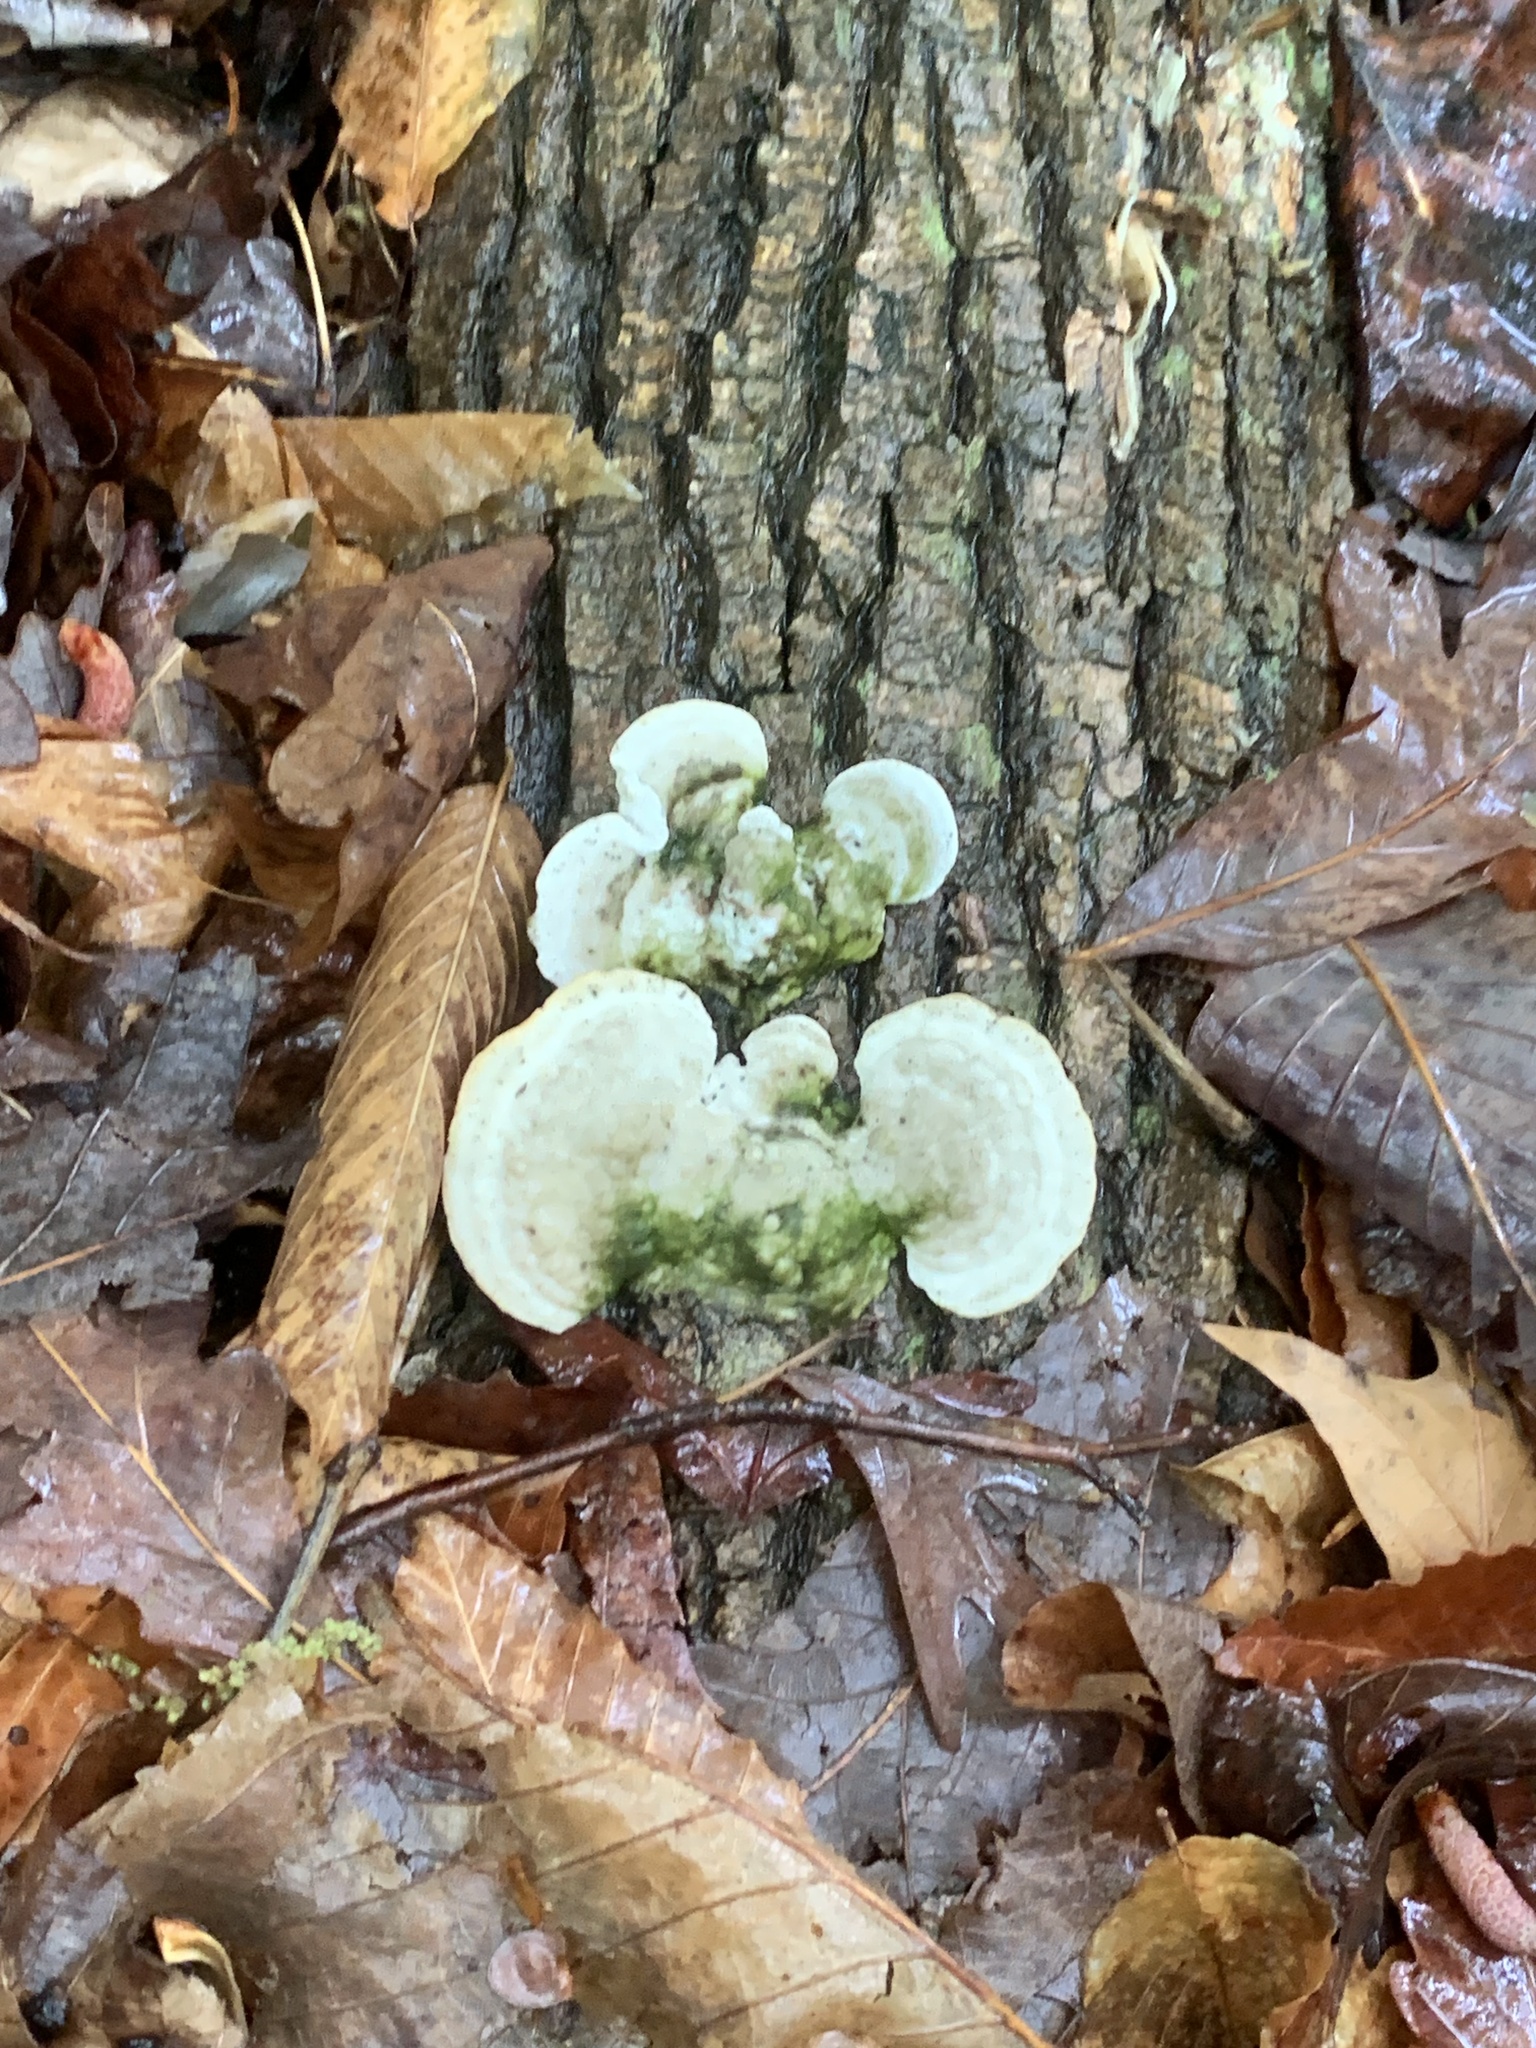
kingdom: Fungi
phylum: Basidiomycota
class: Agaricomycetes
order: Polyporales
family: Polyporaceae
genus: Trametes
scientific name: Trametes gibbosa
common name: Lumpy bracket
